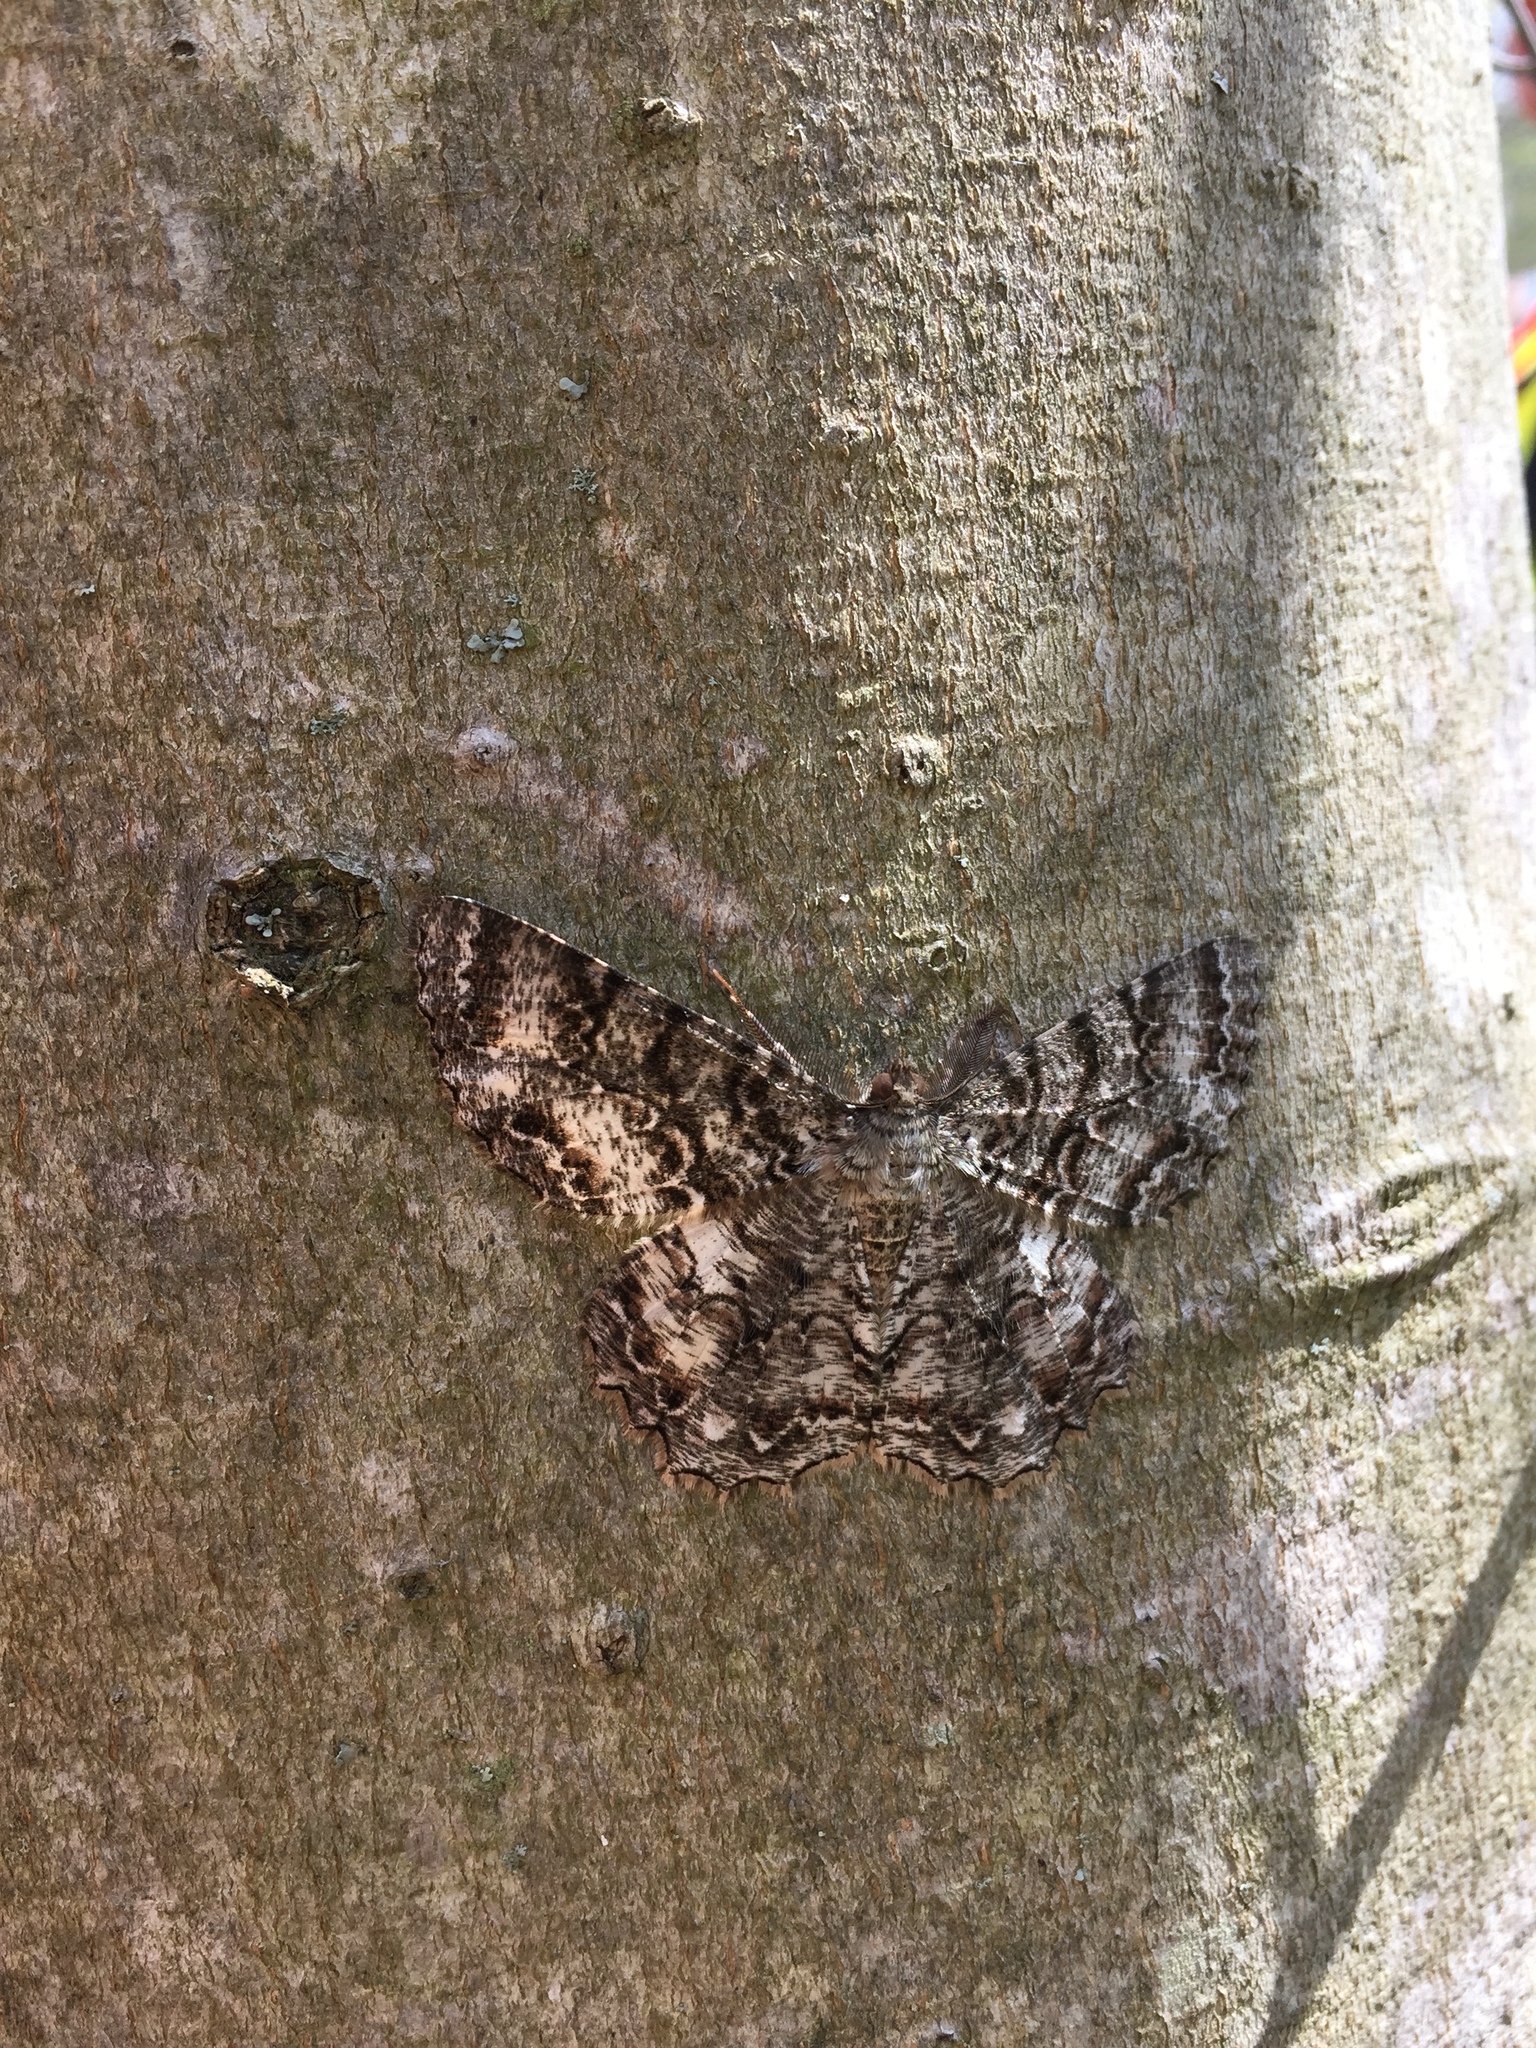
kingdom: Animalia
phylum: Arthropoda
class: Insecta
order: Lepidoptera
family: Geometridae
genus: Epimecis
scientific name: Epimecis hortaria
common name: Tulip-tree beauty
